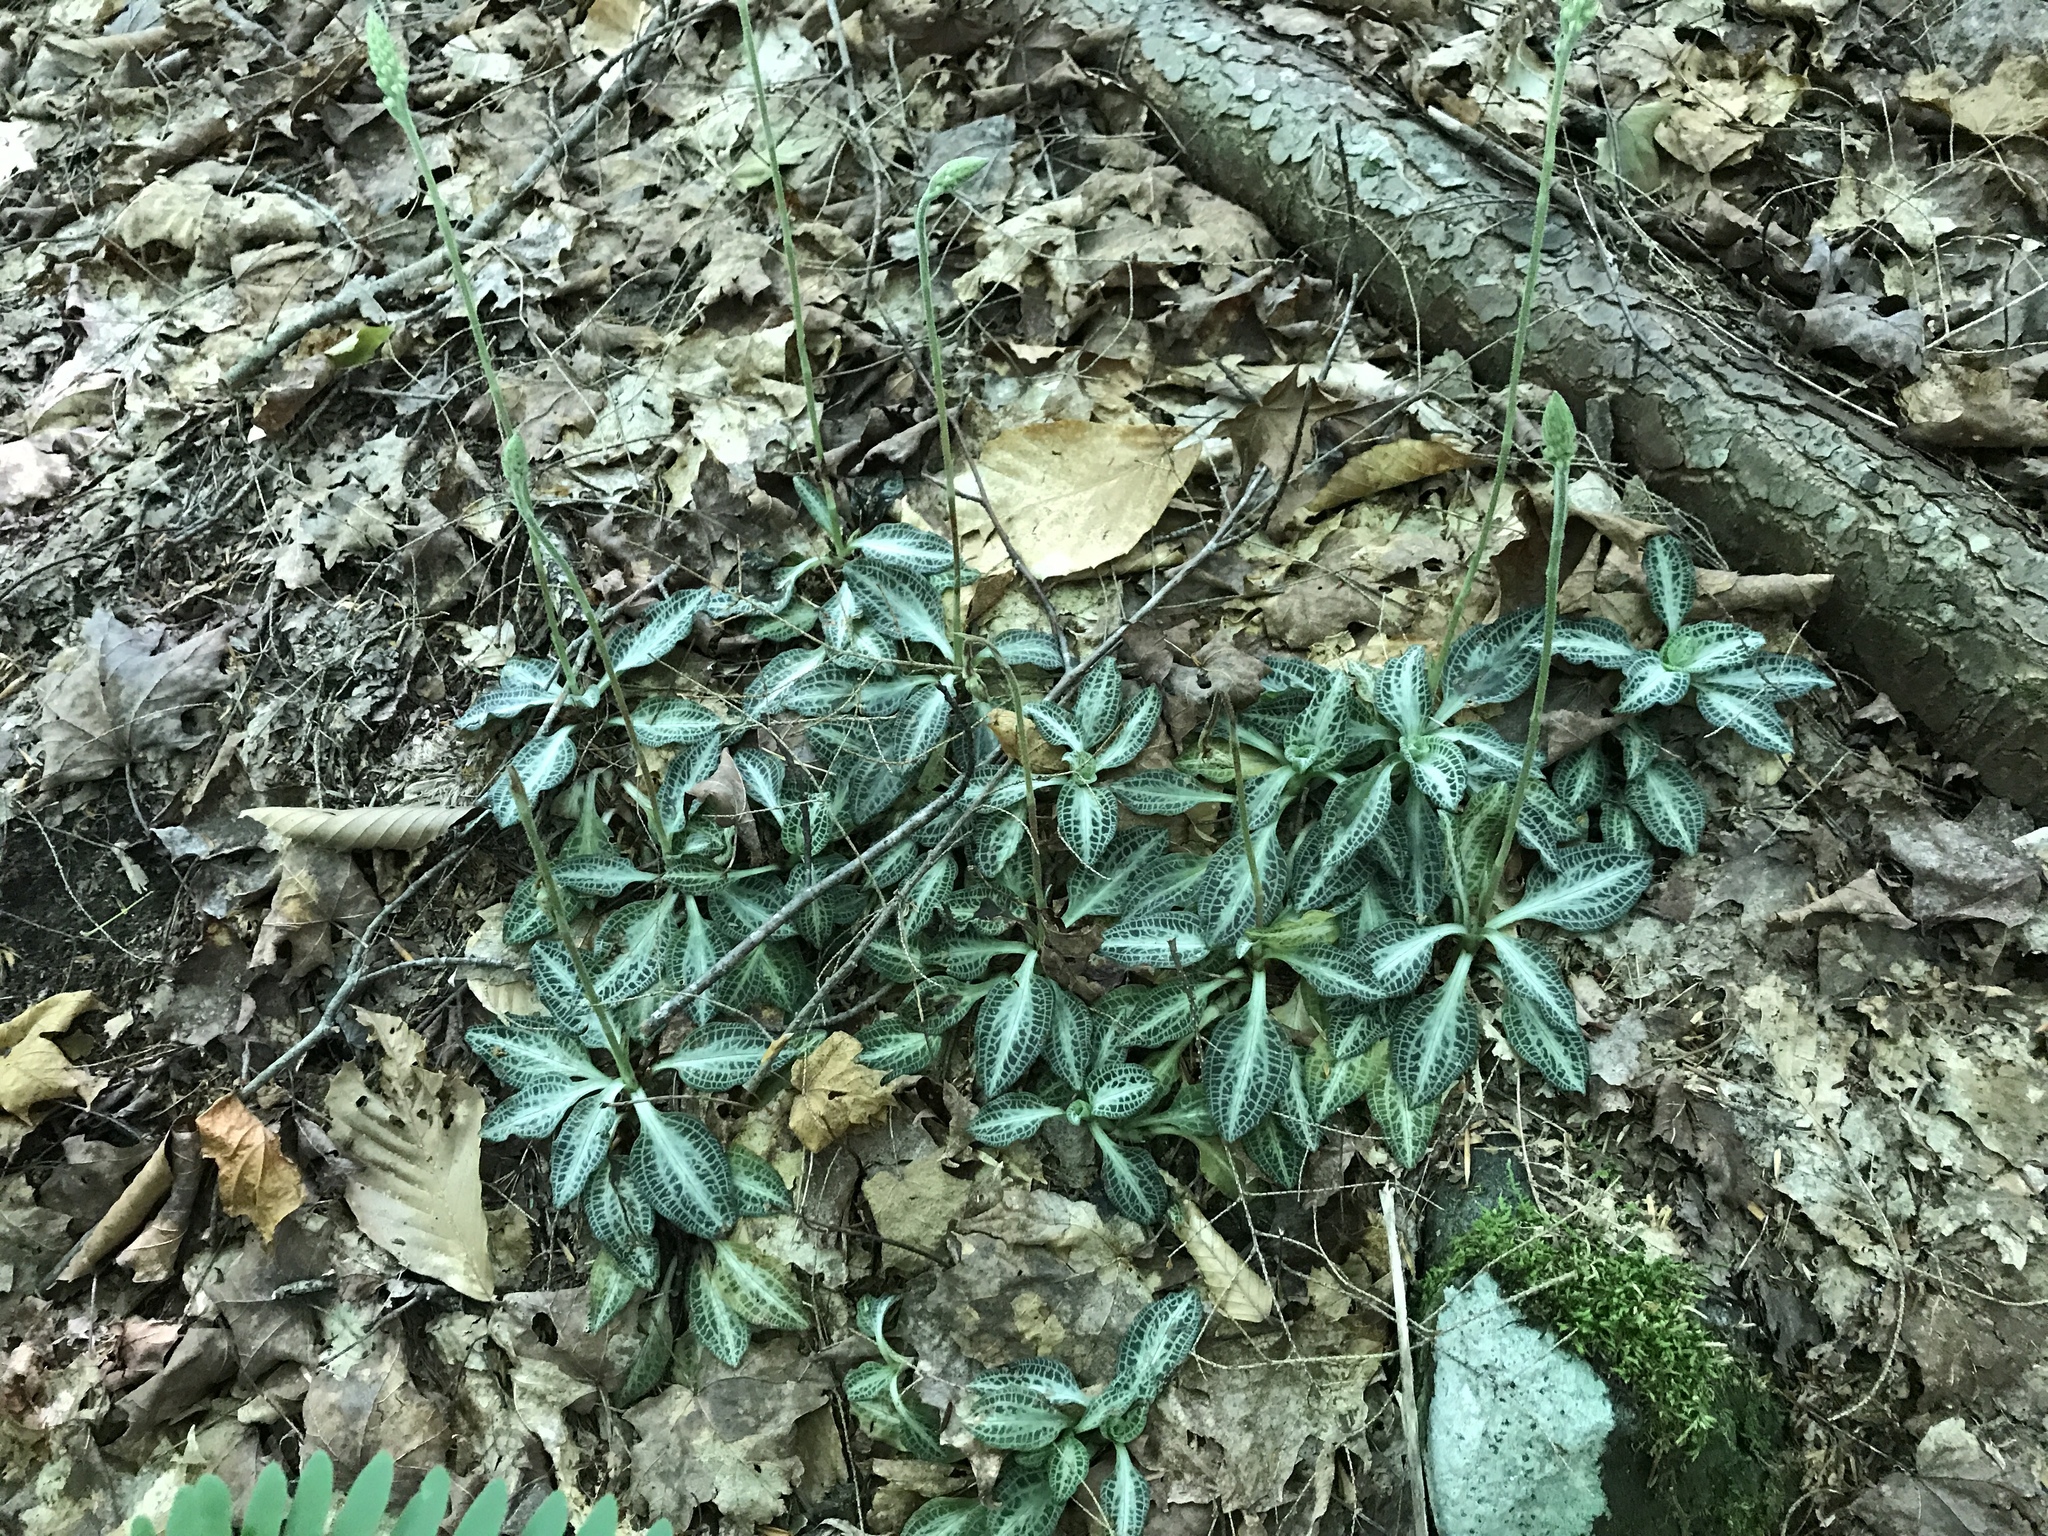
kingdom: Plantae
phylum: Tracheophyta
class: Liliopsida
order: Asparagales
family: Orchidaceae
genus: Goodyera
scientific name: Goodyera pubescens
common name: Downy rattlesnake-plantain
